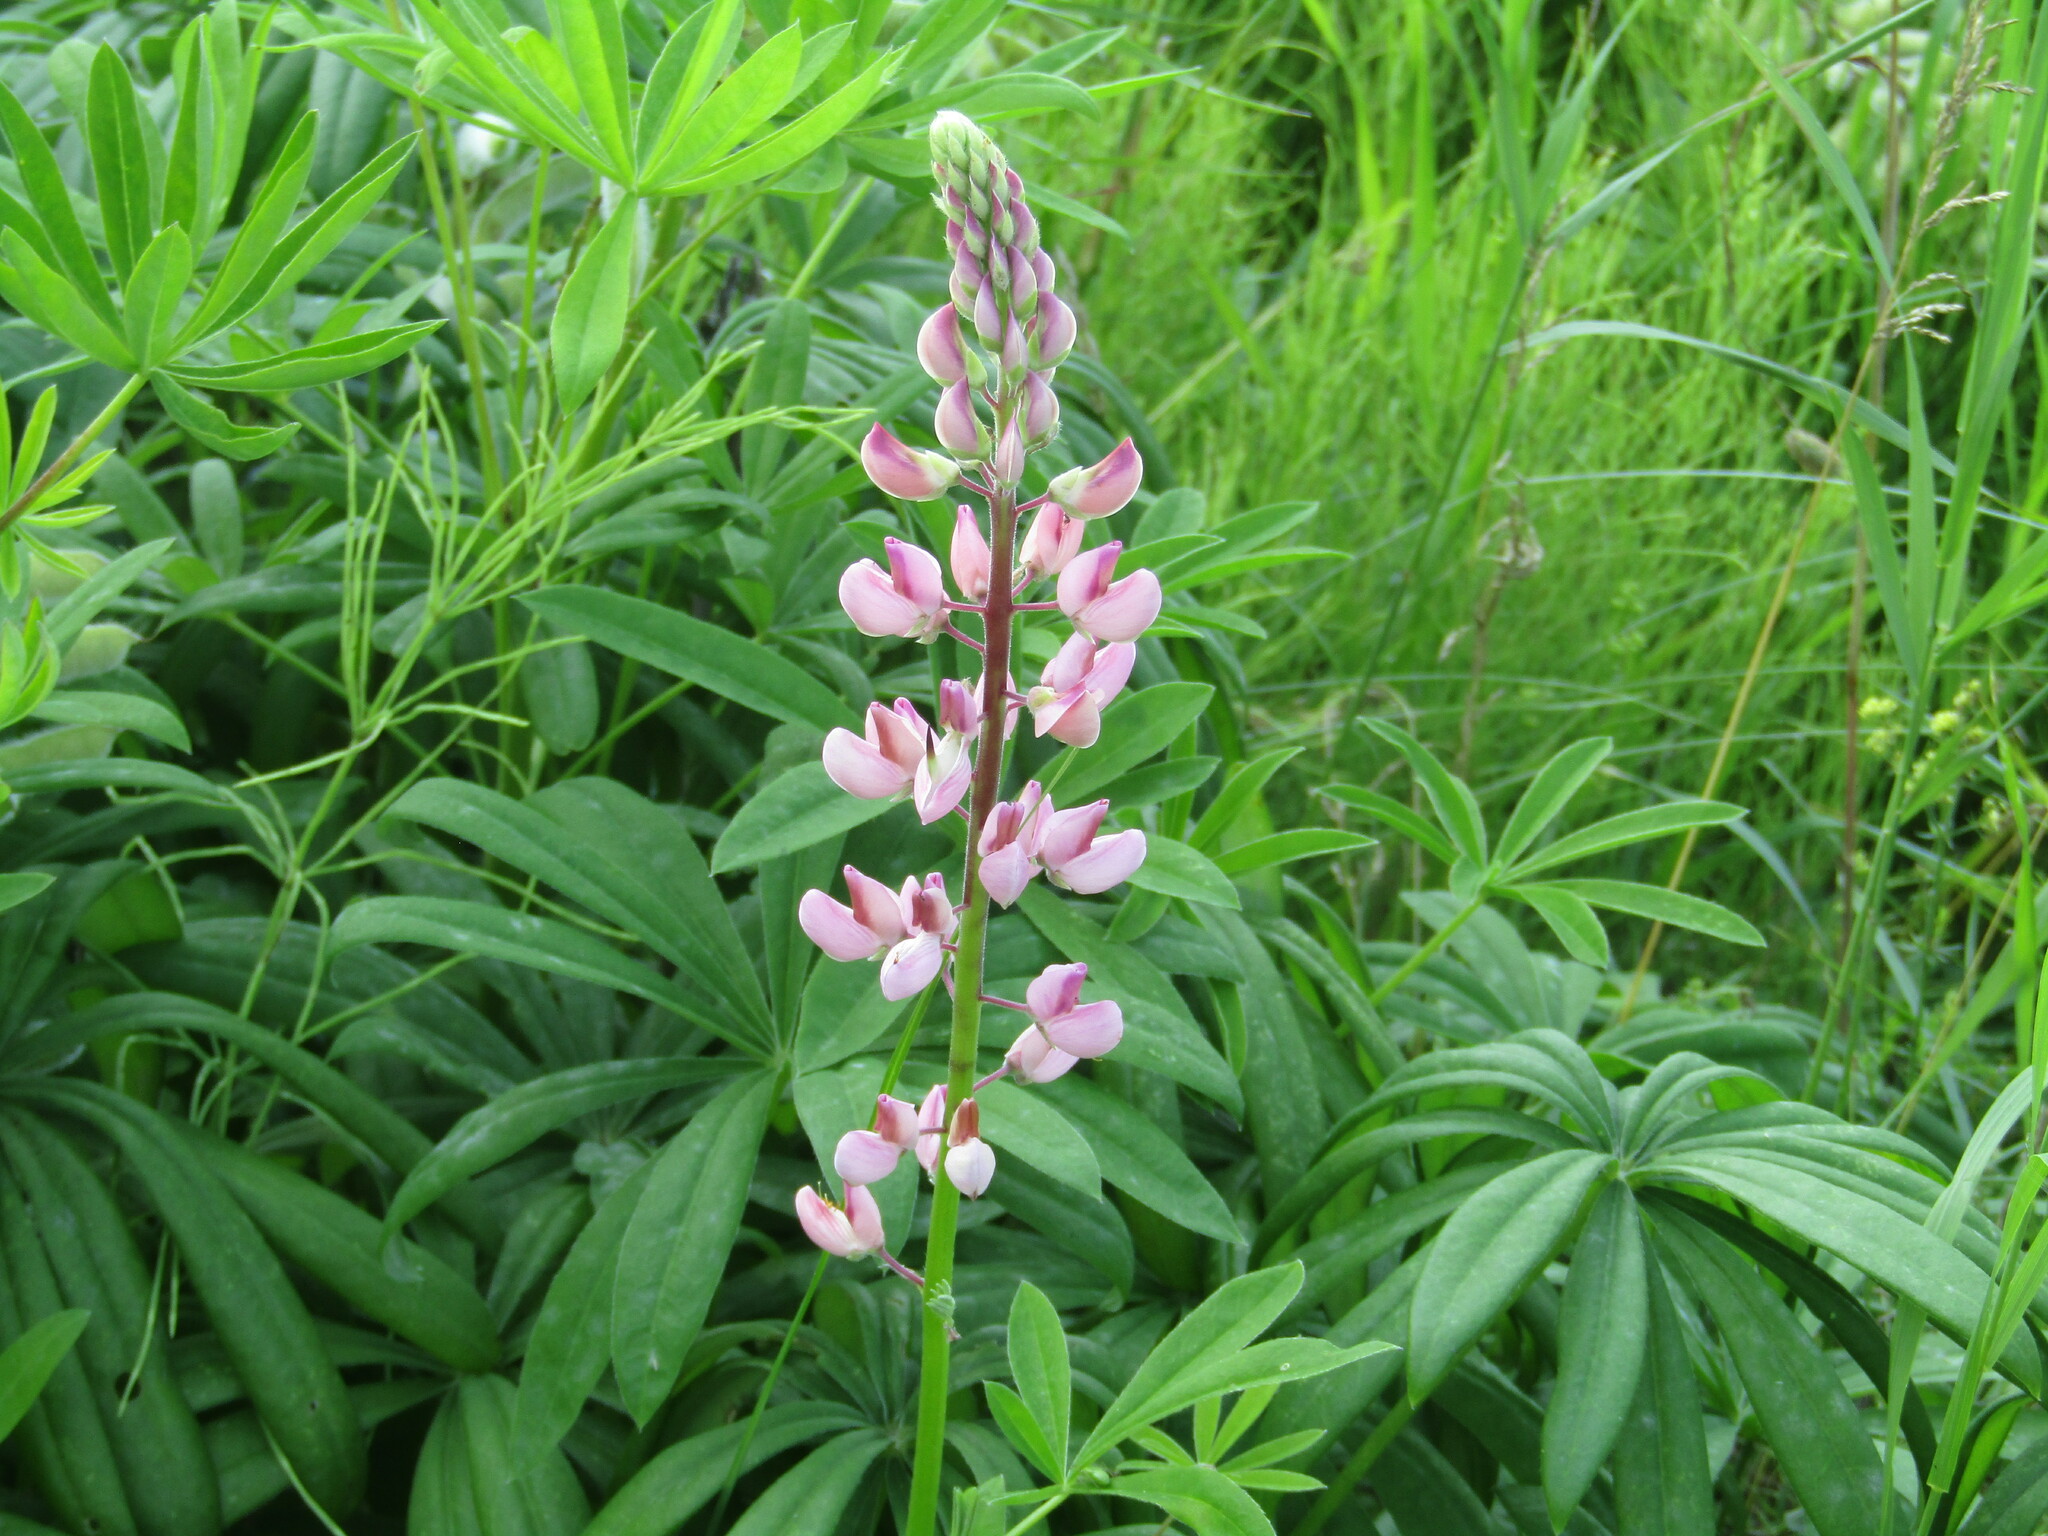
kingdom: Plantae
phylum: Tracheophyta
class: Magnoliopsida
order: Fabales
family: Fabaceae
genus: Lupinus
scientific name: Lupinus polyphyllus
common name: Garden lupin
